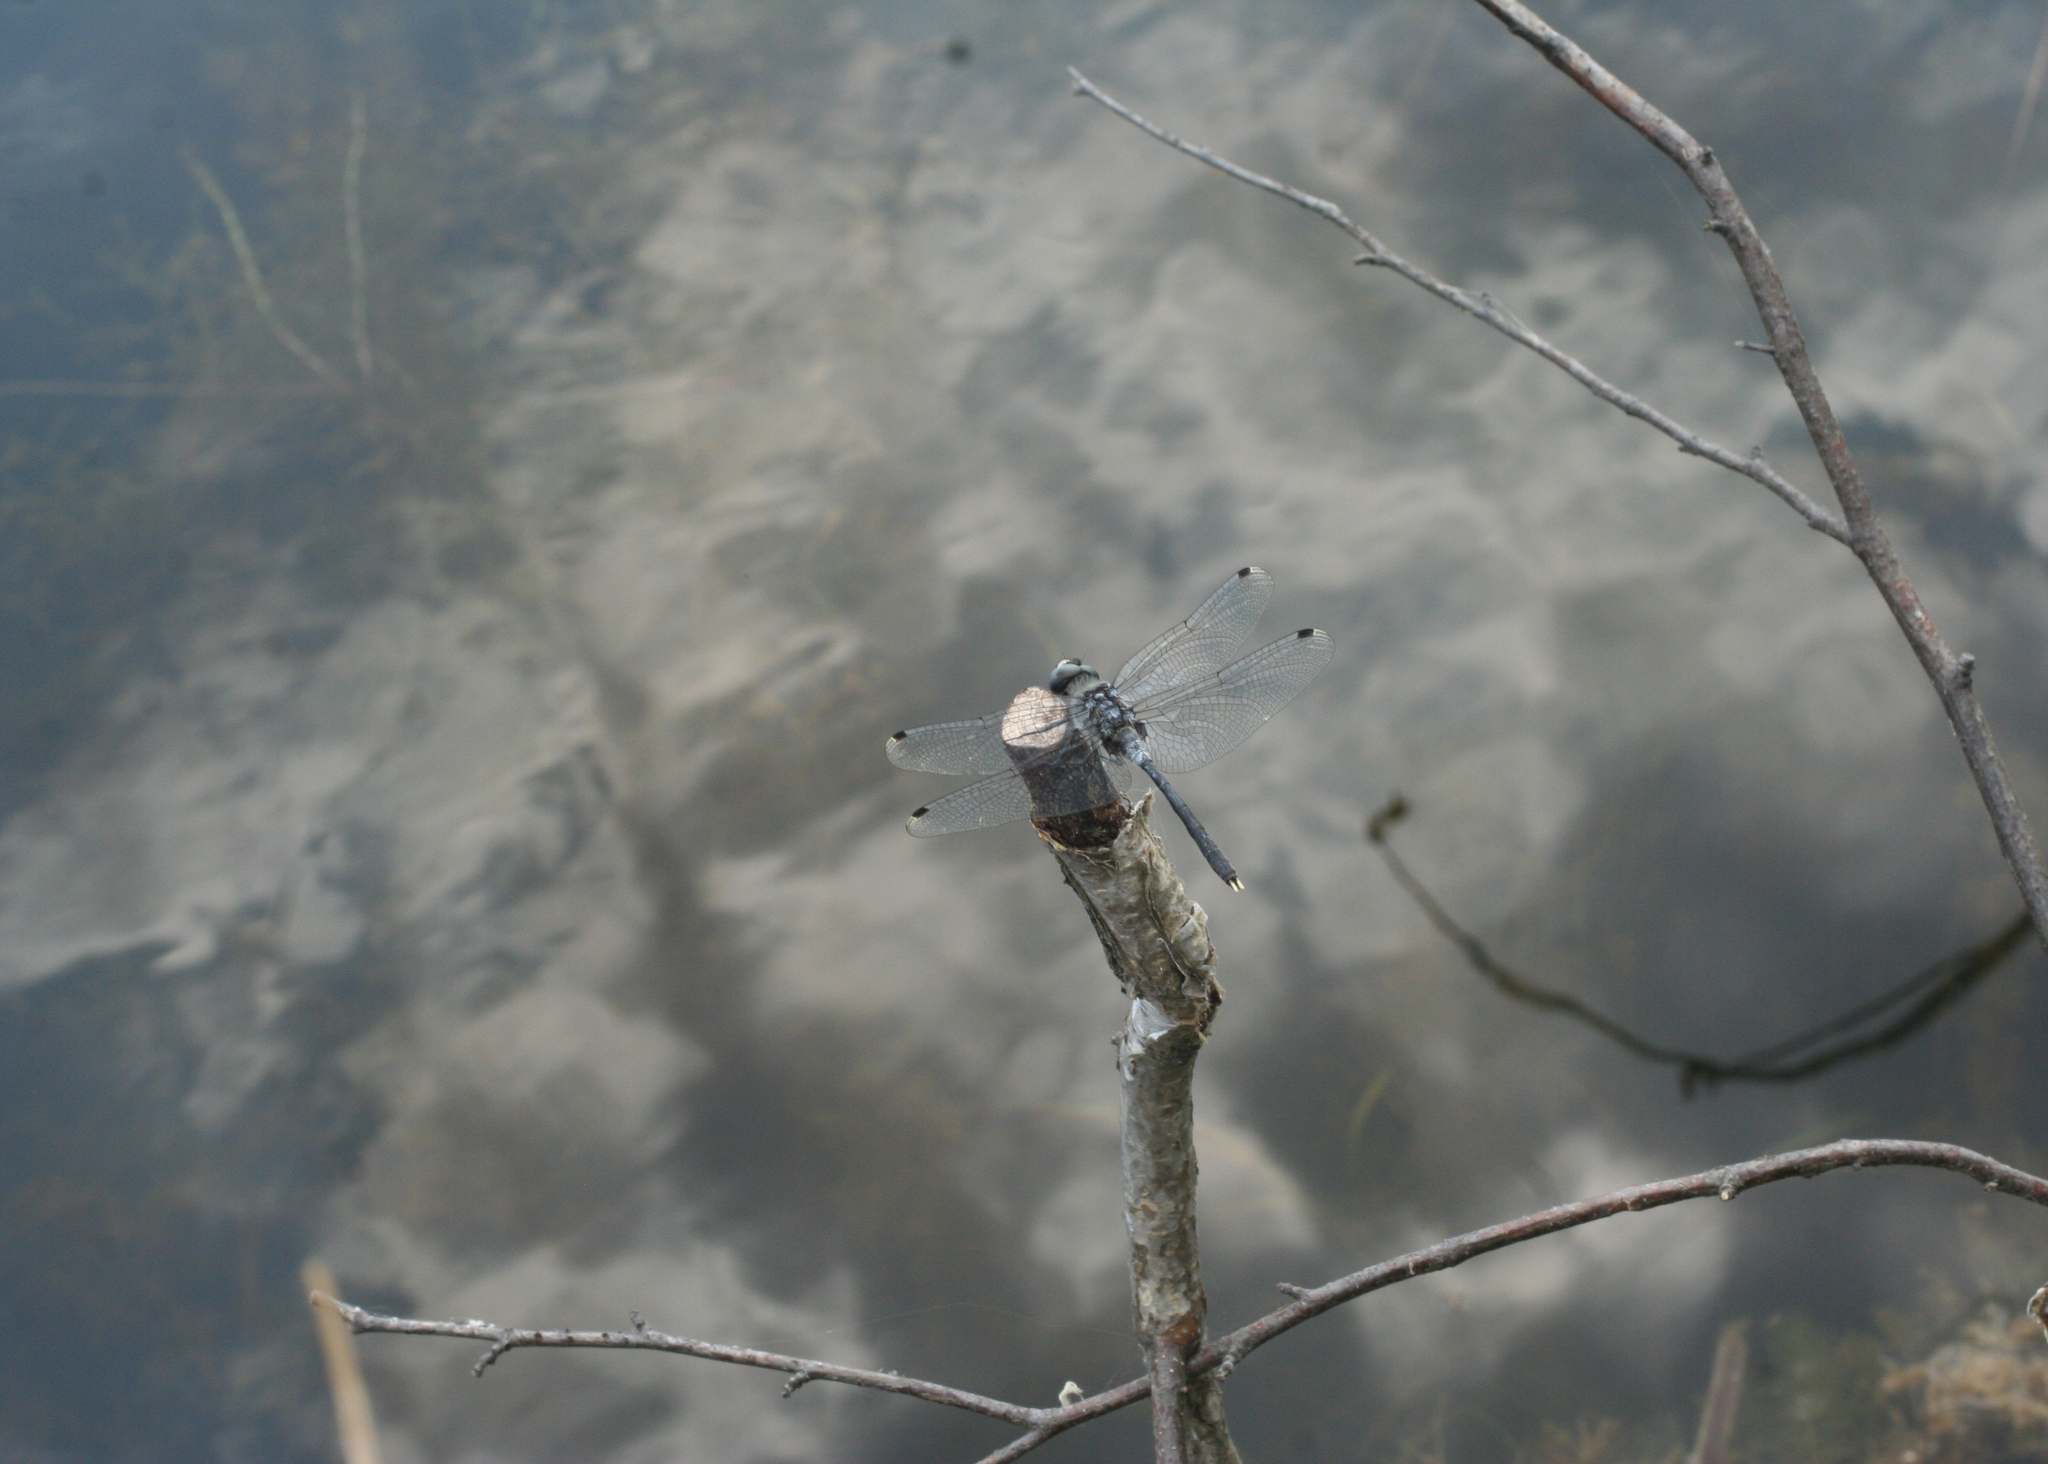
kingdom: Animalia
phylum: Arthropoda
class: Insecta
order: Odonata
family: Libellulidae
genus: Leucorrhinia
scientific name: Leucorrhinia albifrons
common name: Dark whiteface
